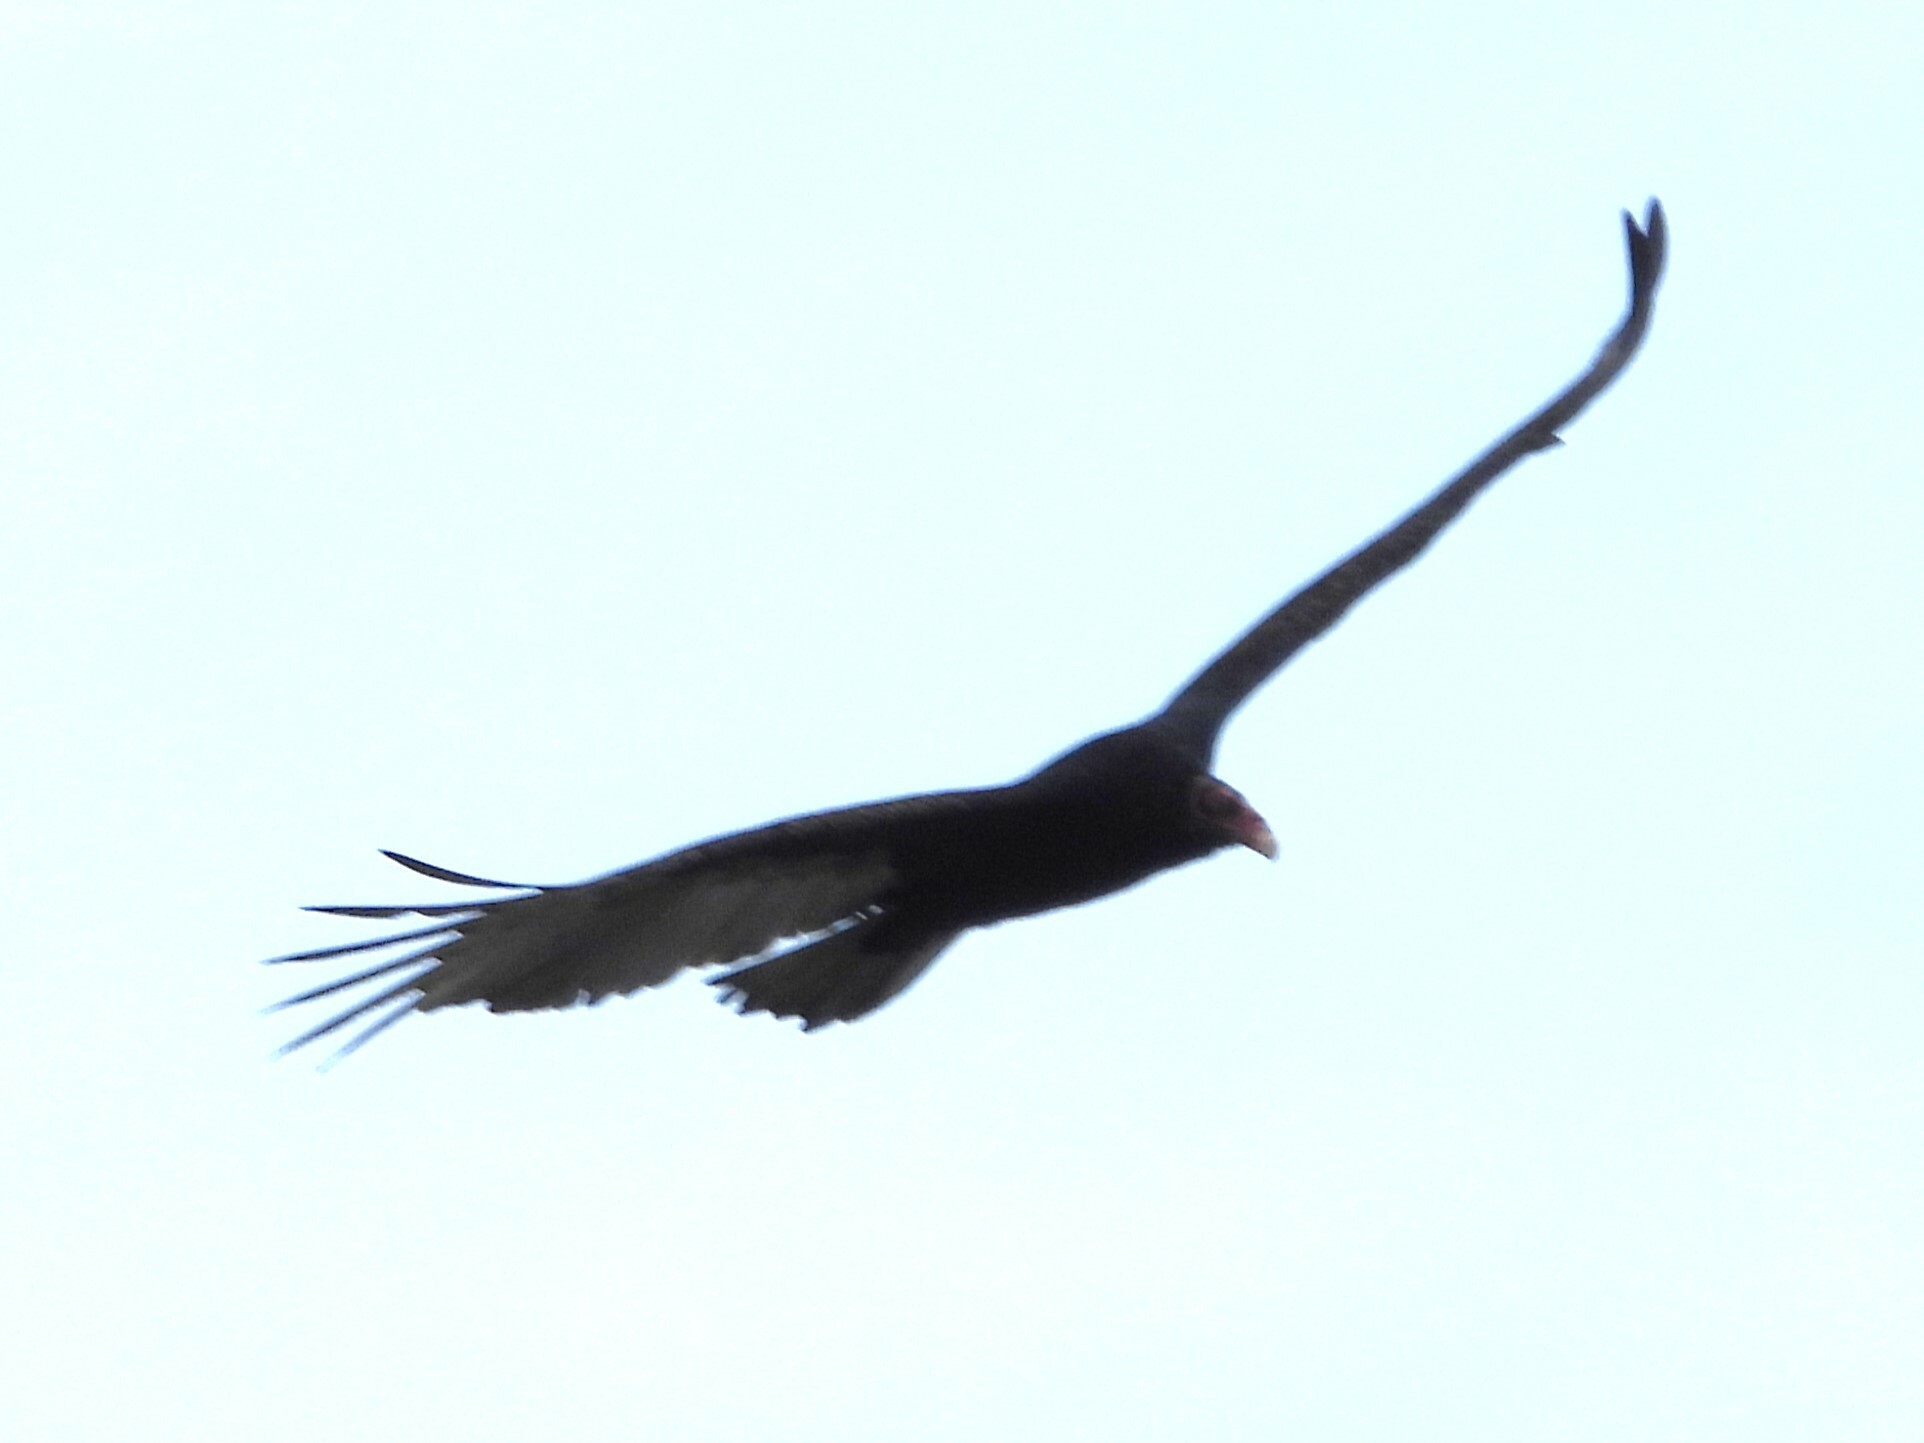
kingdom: Animalia
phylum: Chordata
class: Aves
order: Accipitriformes
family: Cathartidae
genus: Cathartes
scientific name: Cathartes aura
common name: Turkey vulture
